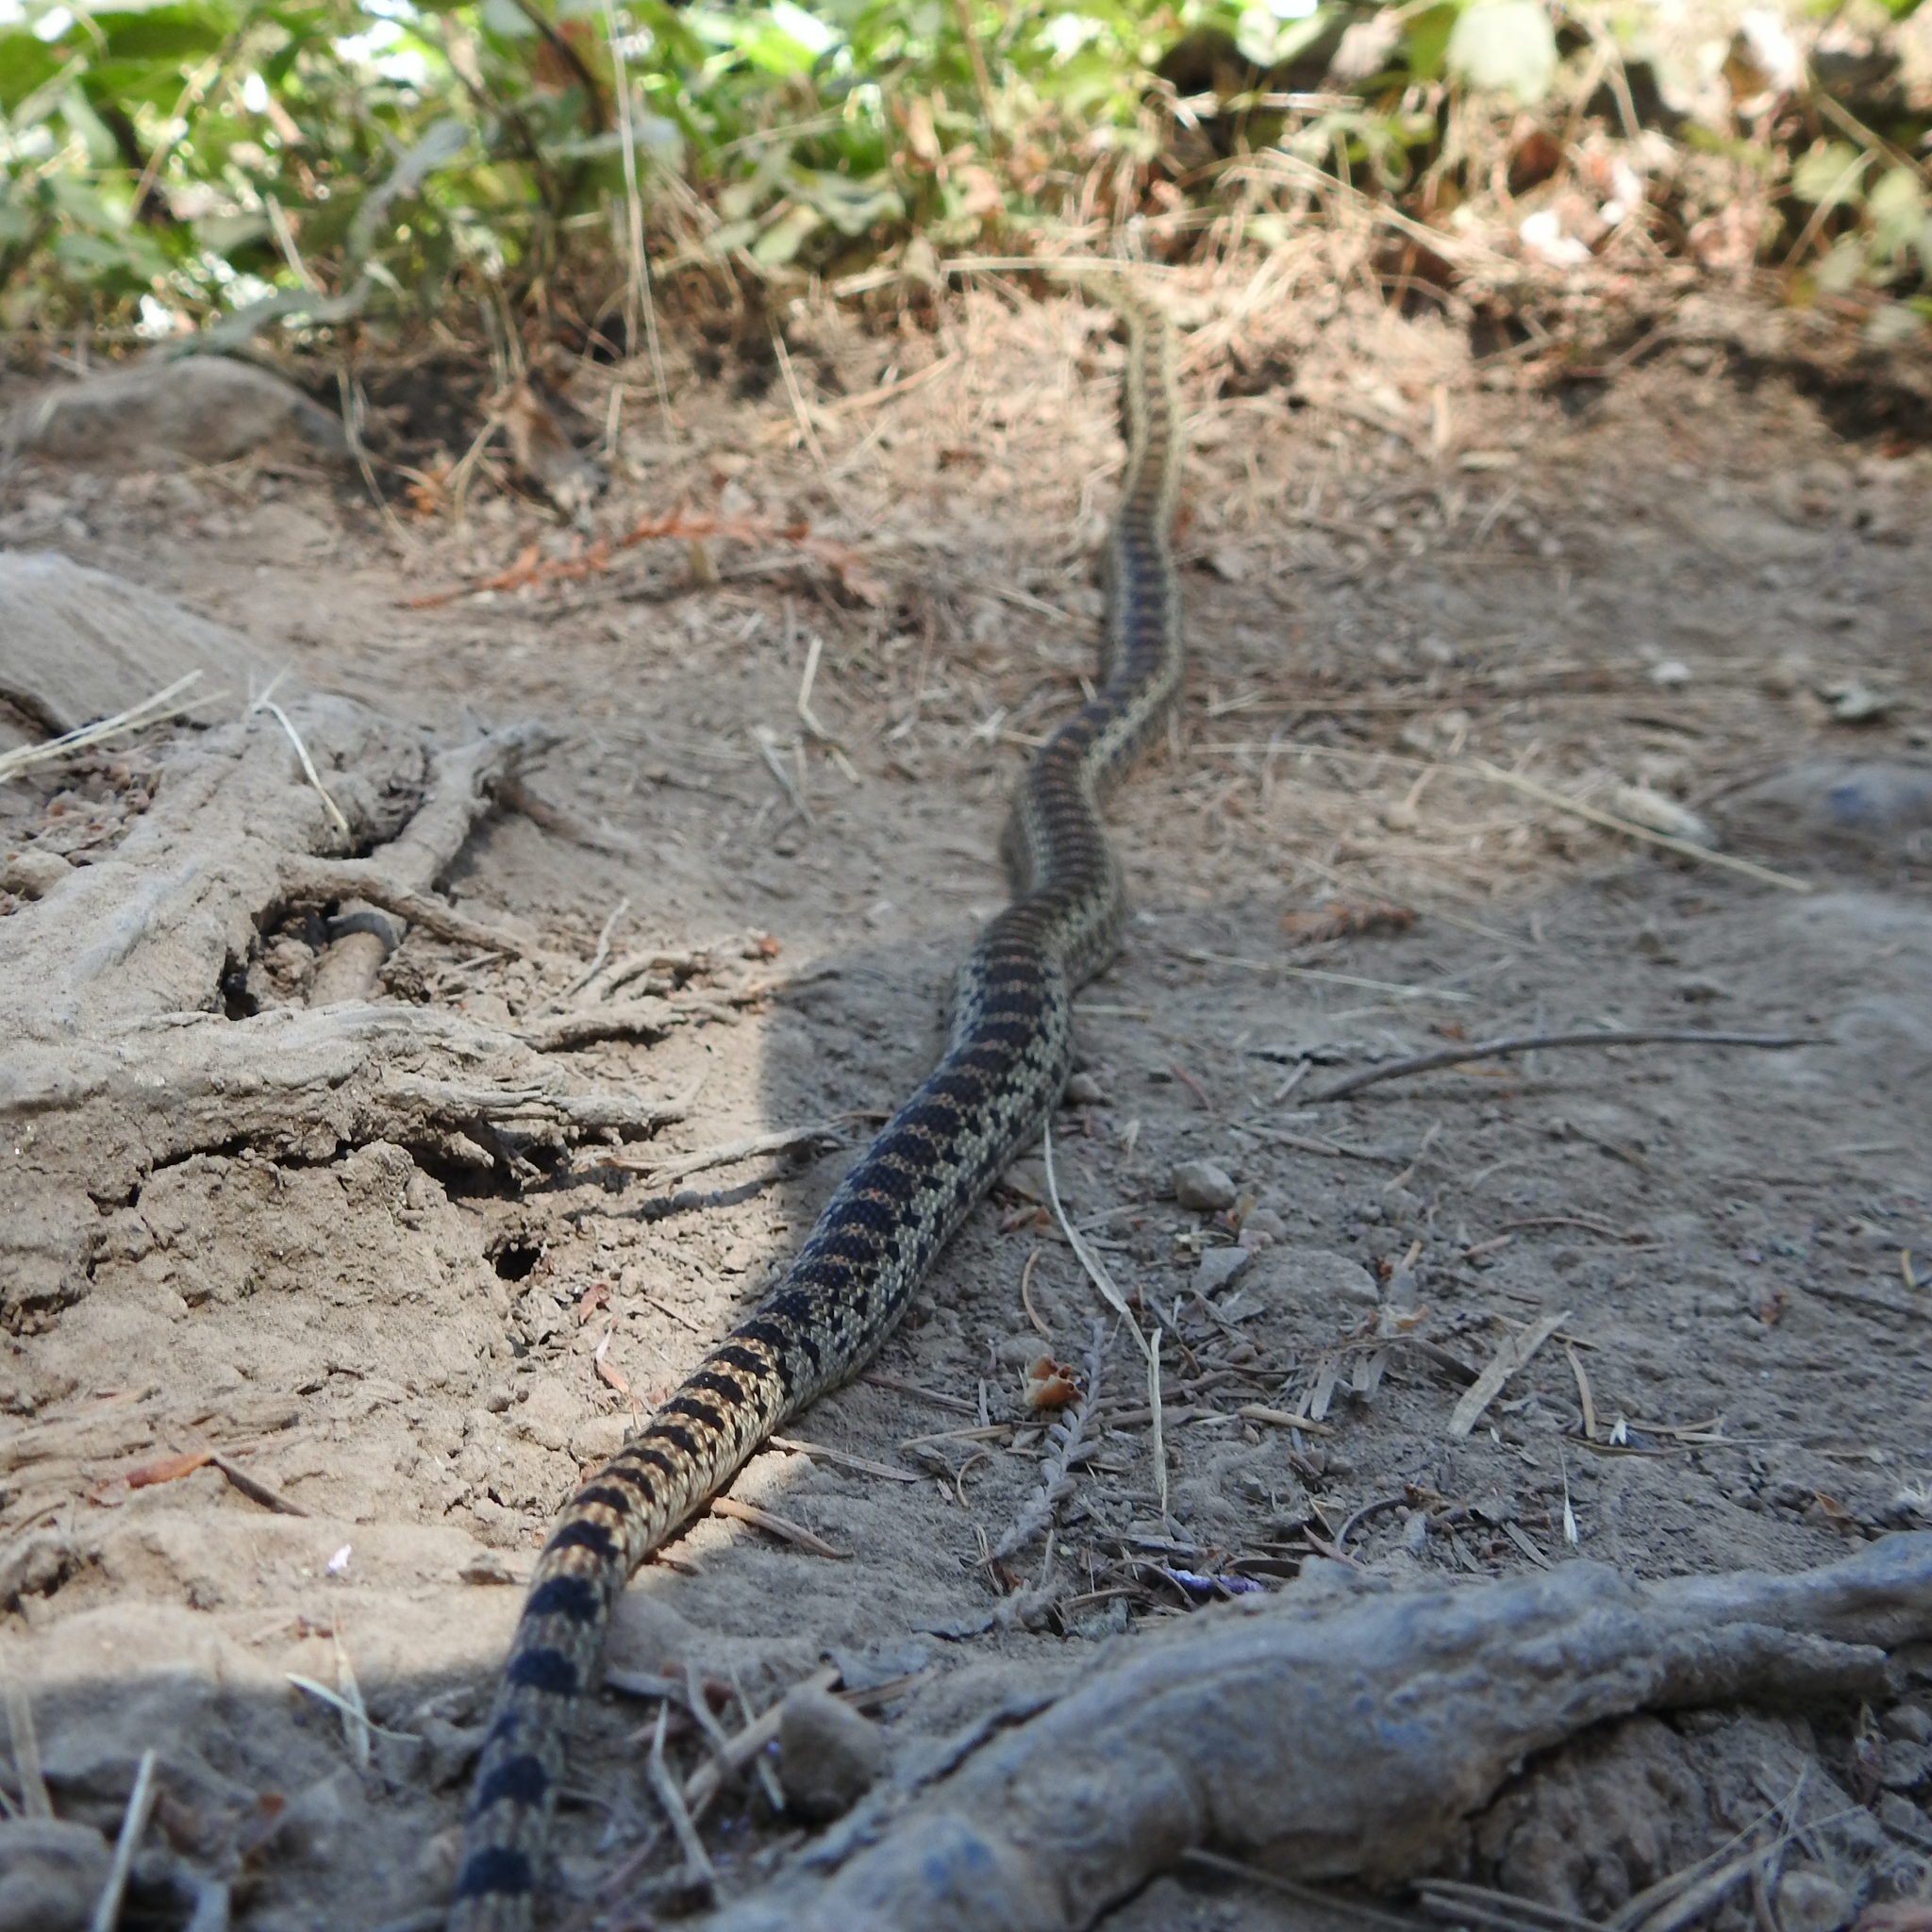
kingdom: Animalia
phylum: Chordata
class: Squamata
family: Colubridae
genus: Pituophis
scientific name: Pituophis catenifer
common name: Gopher snake
